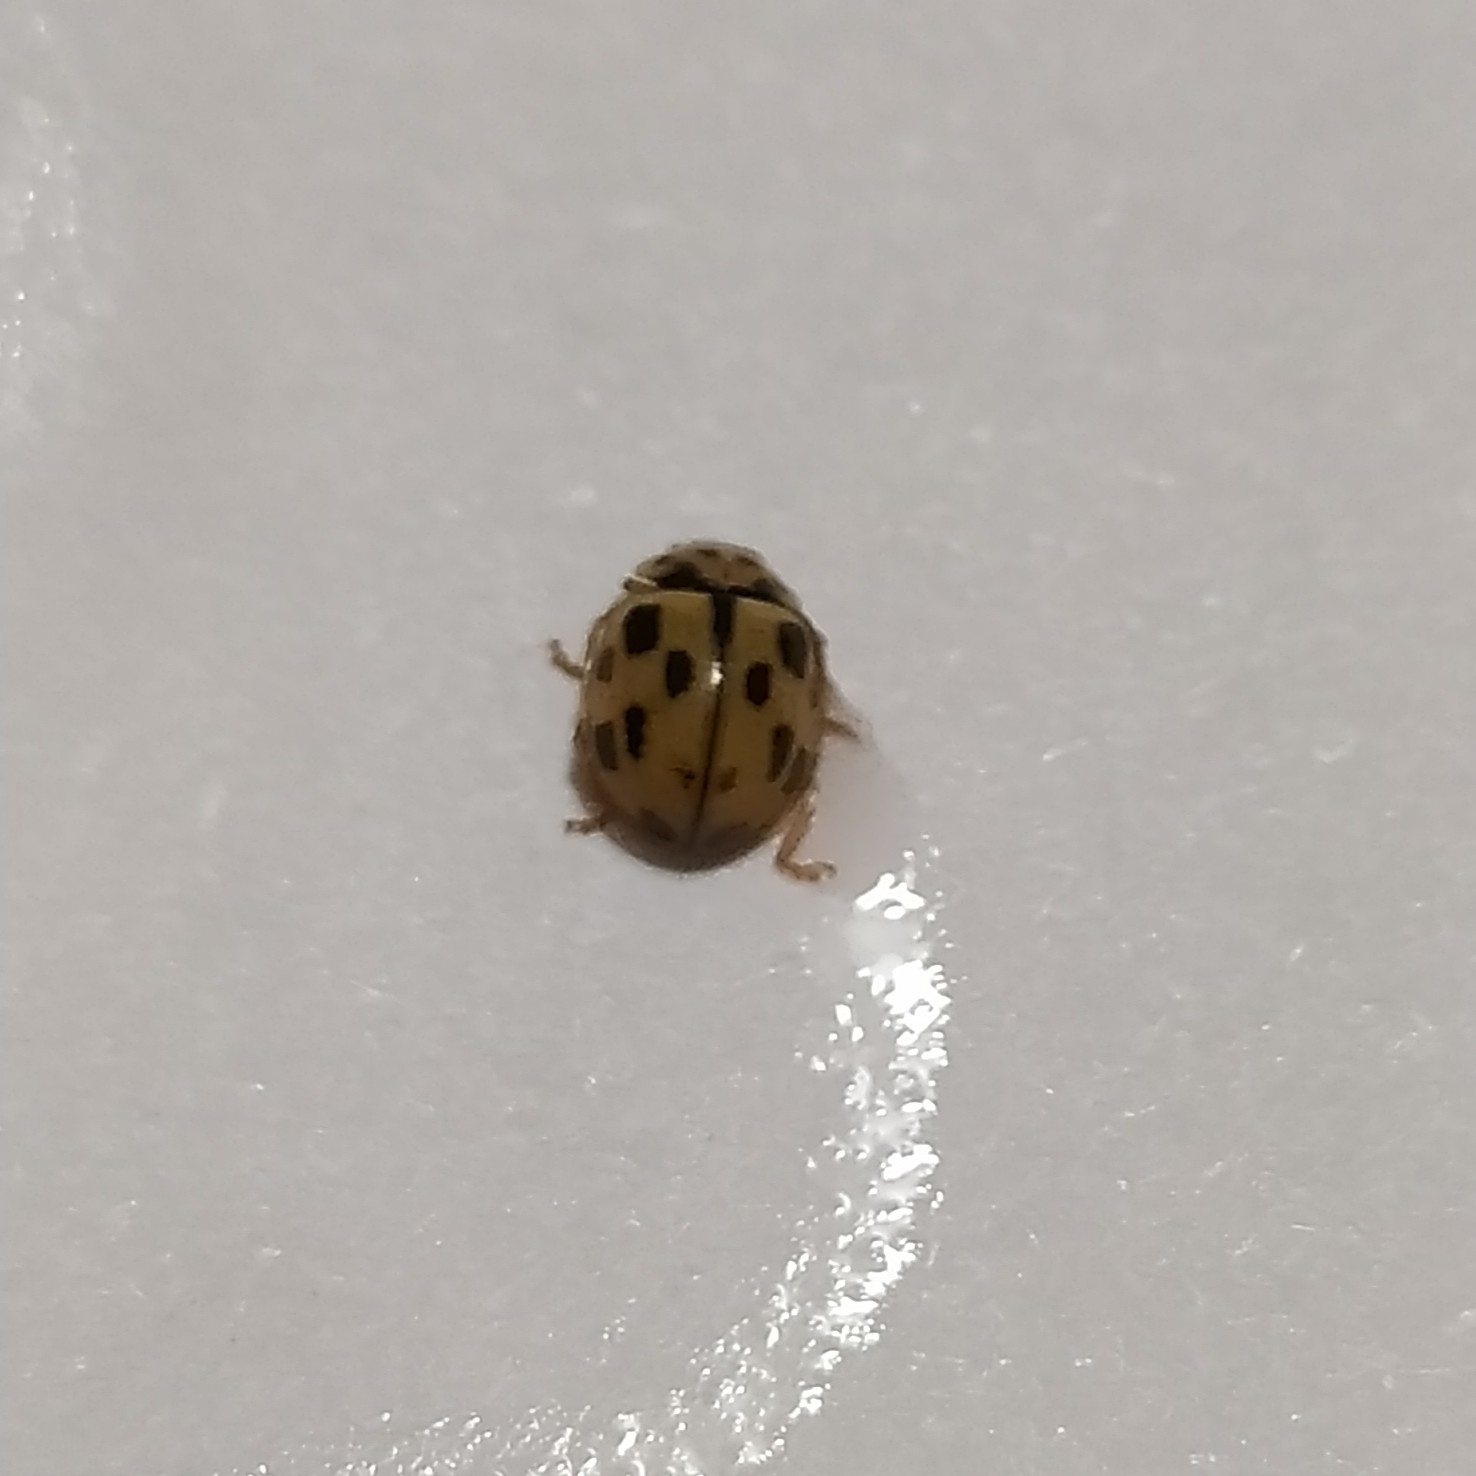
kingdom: Animalia
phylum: Arthropoda
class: Insecta
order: Coleoptera
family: Coccinellidae
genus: Propylaea
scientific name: Propylaea quatuordecimpunctata
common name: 14-spotted ladybird beetle
